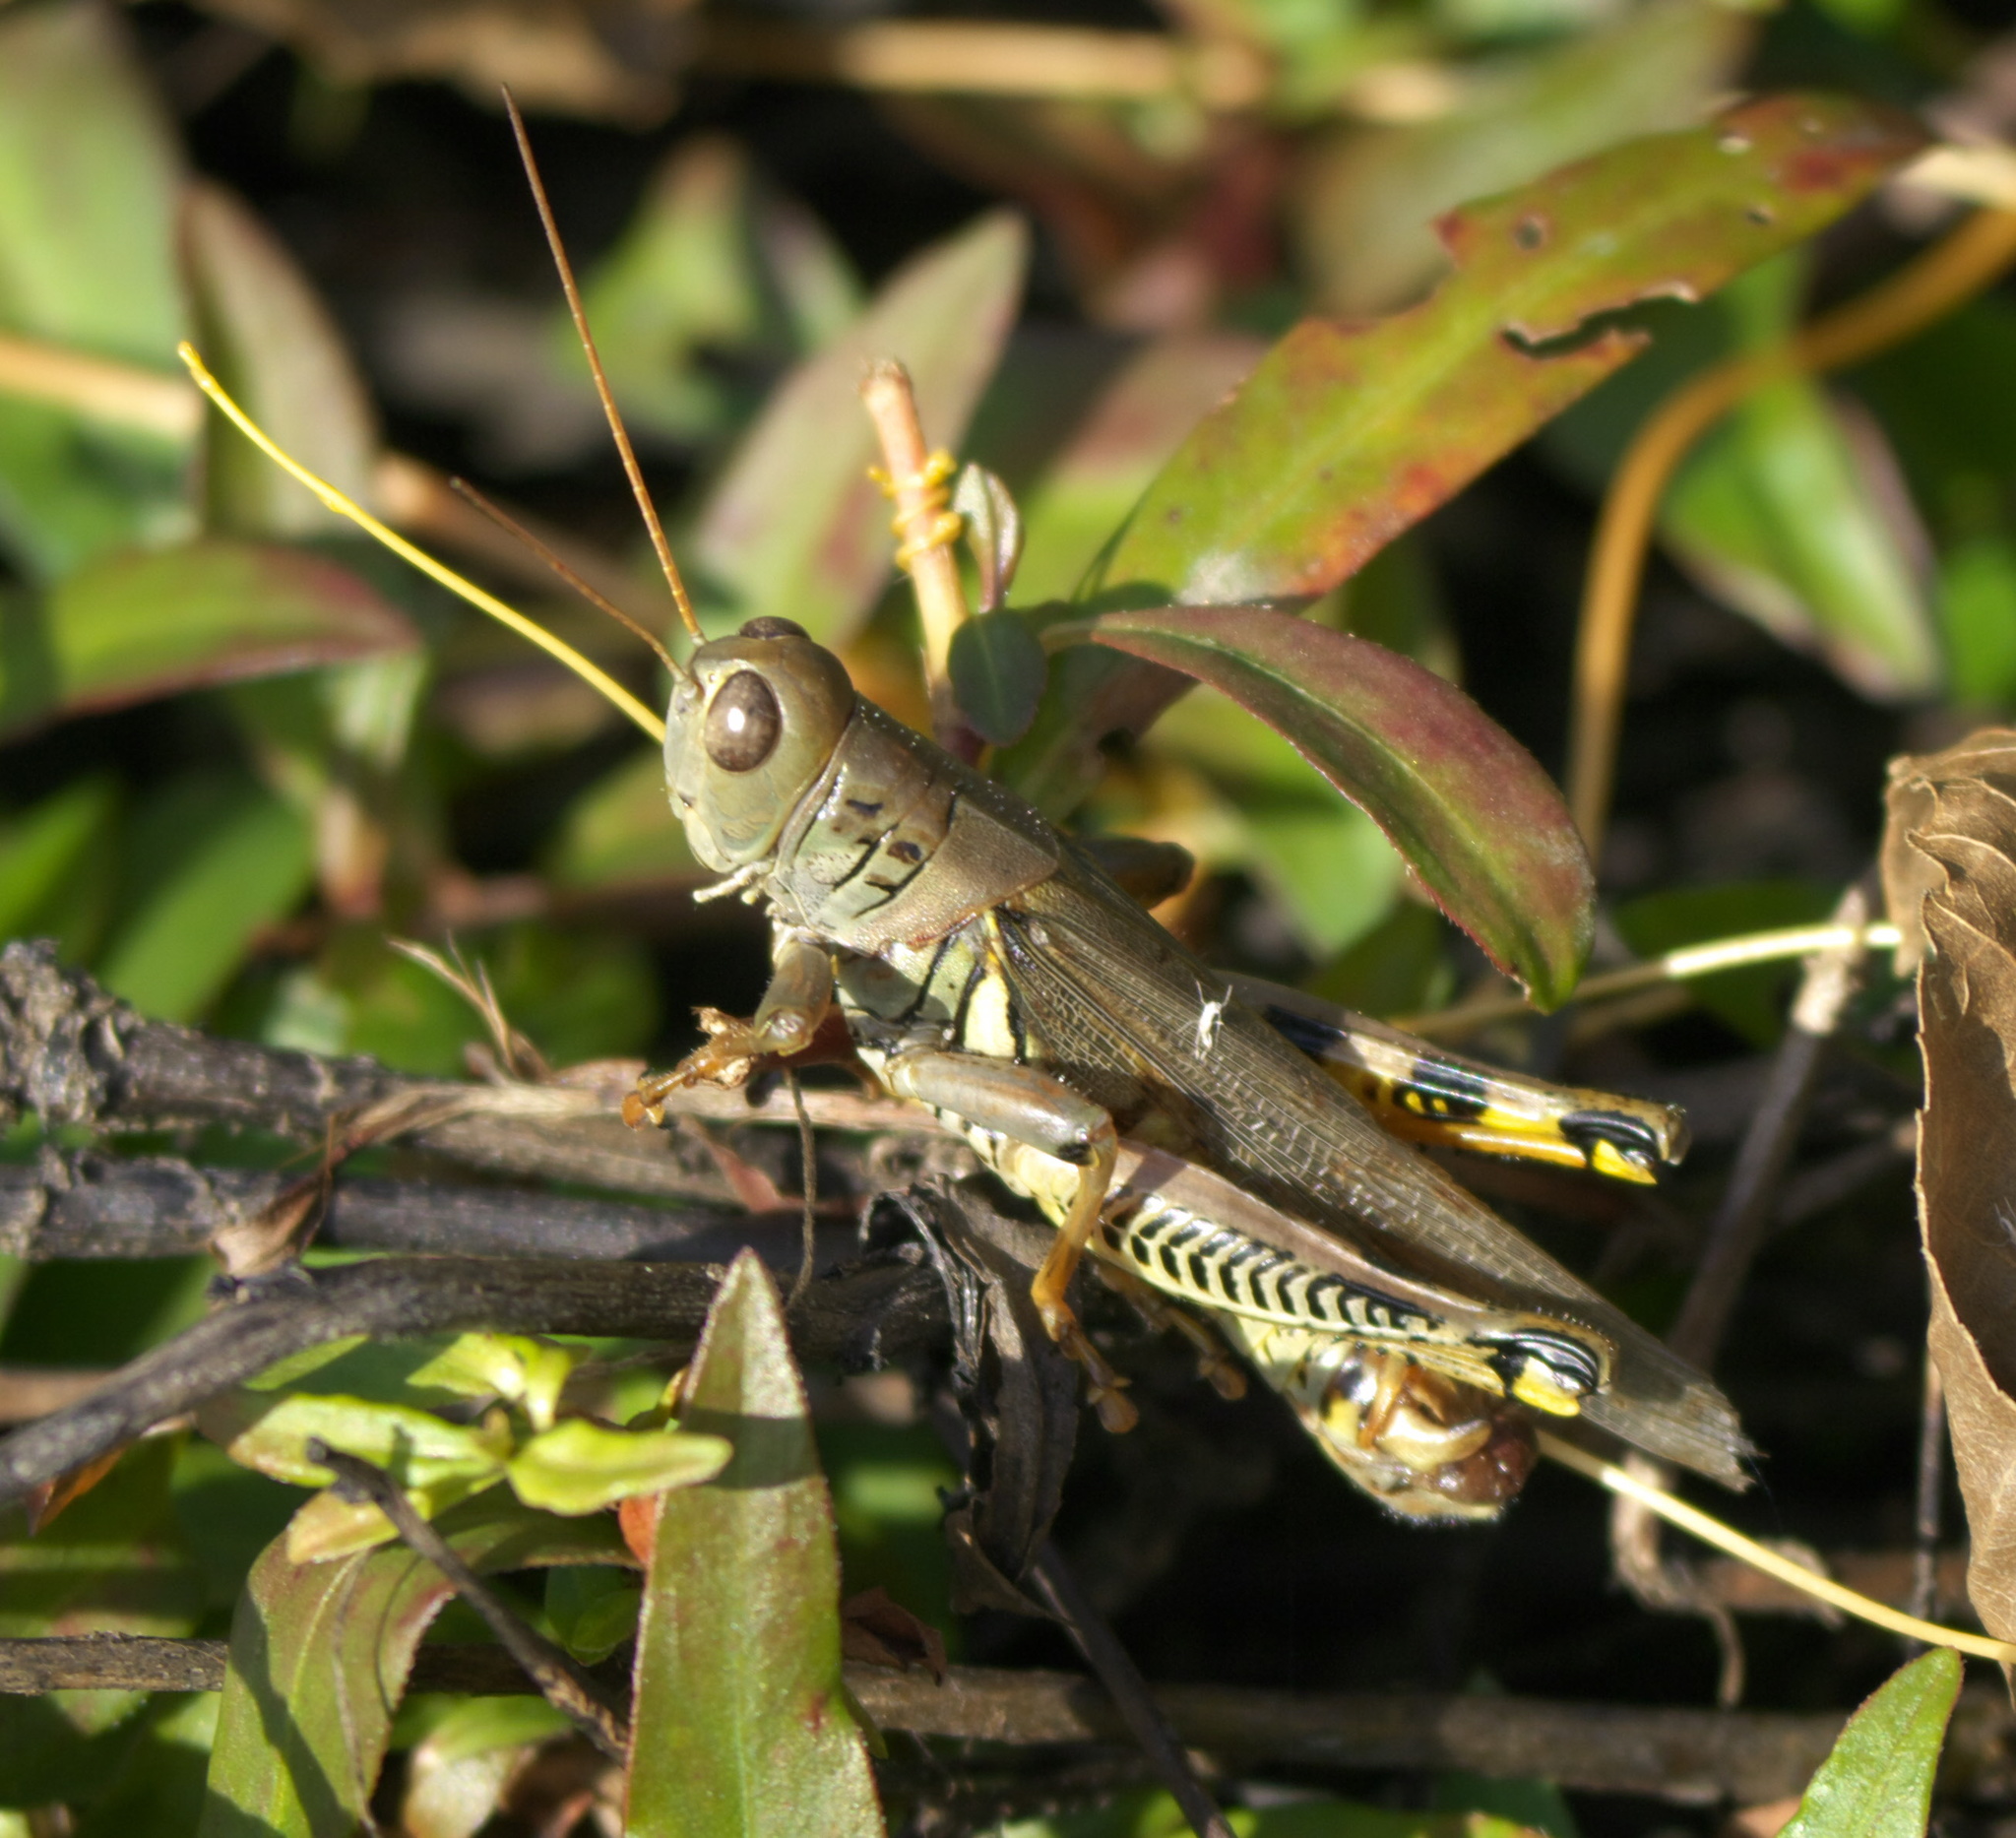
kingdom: Animalia
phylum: Arthropoda
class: Insecta
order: Orthoptera
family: Acrididae
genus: Melanoplus
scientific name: Melanoplus differentialis
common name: Differential grasshopper
